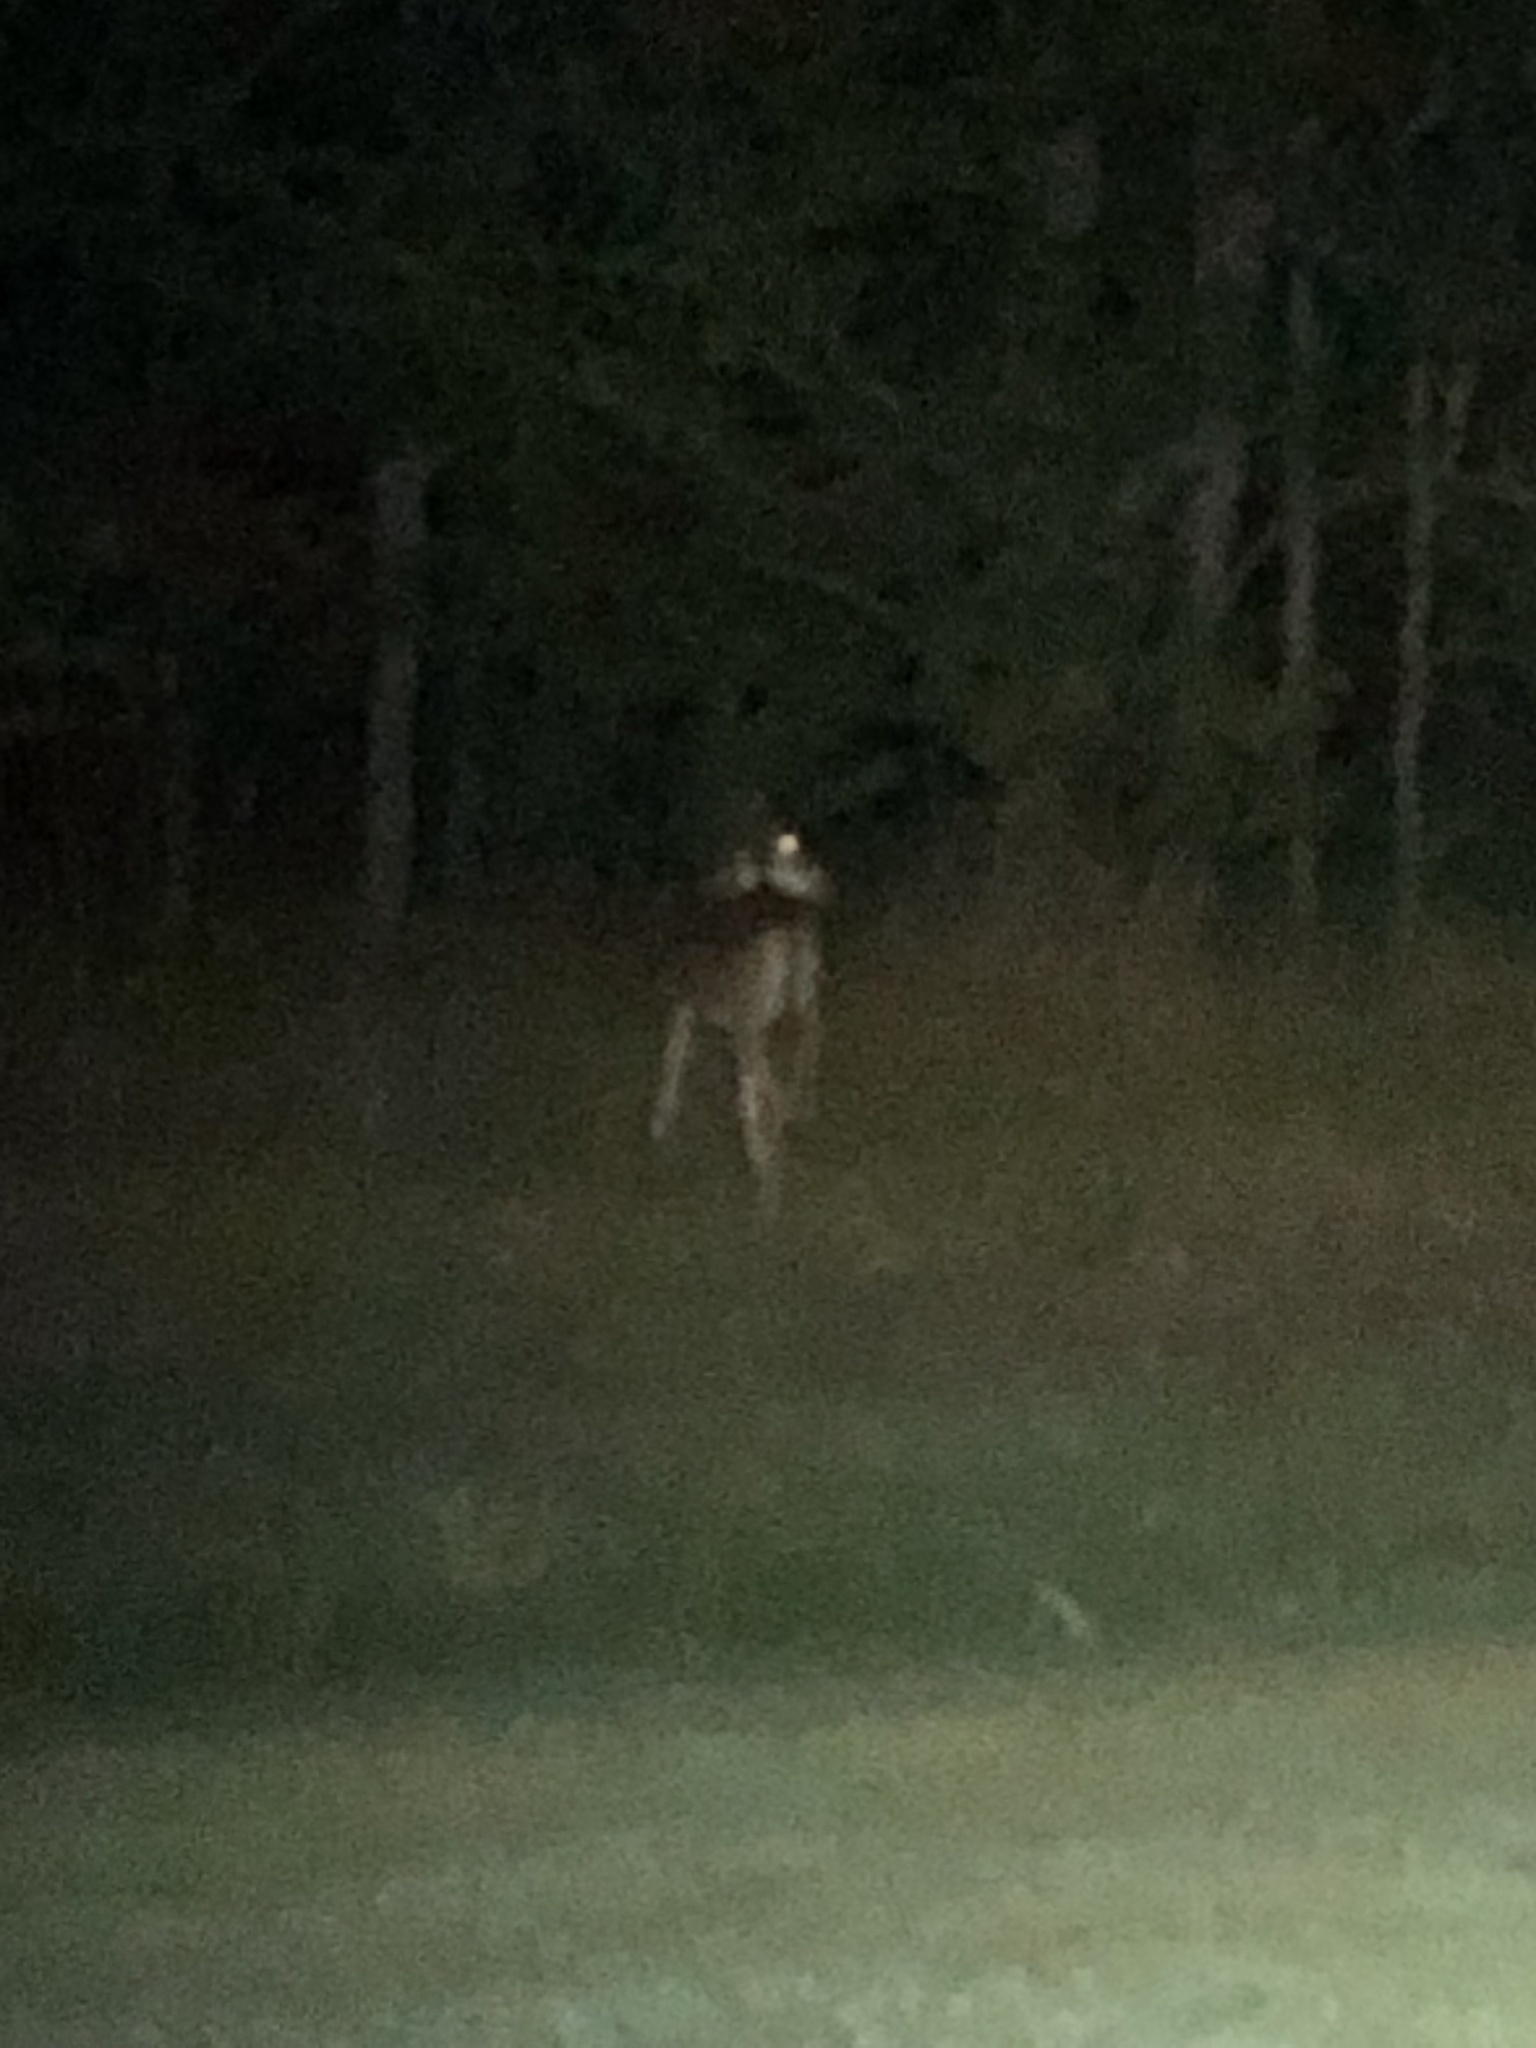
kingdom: Animalia
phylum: Chordata
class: Mammalia
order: Artiodactyla
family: Cervidae
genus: Odocoileus
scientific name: Odocoileus virginianus
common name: White-tailed deer
